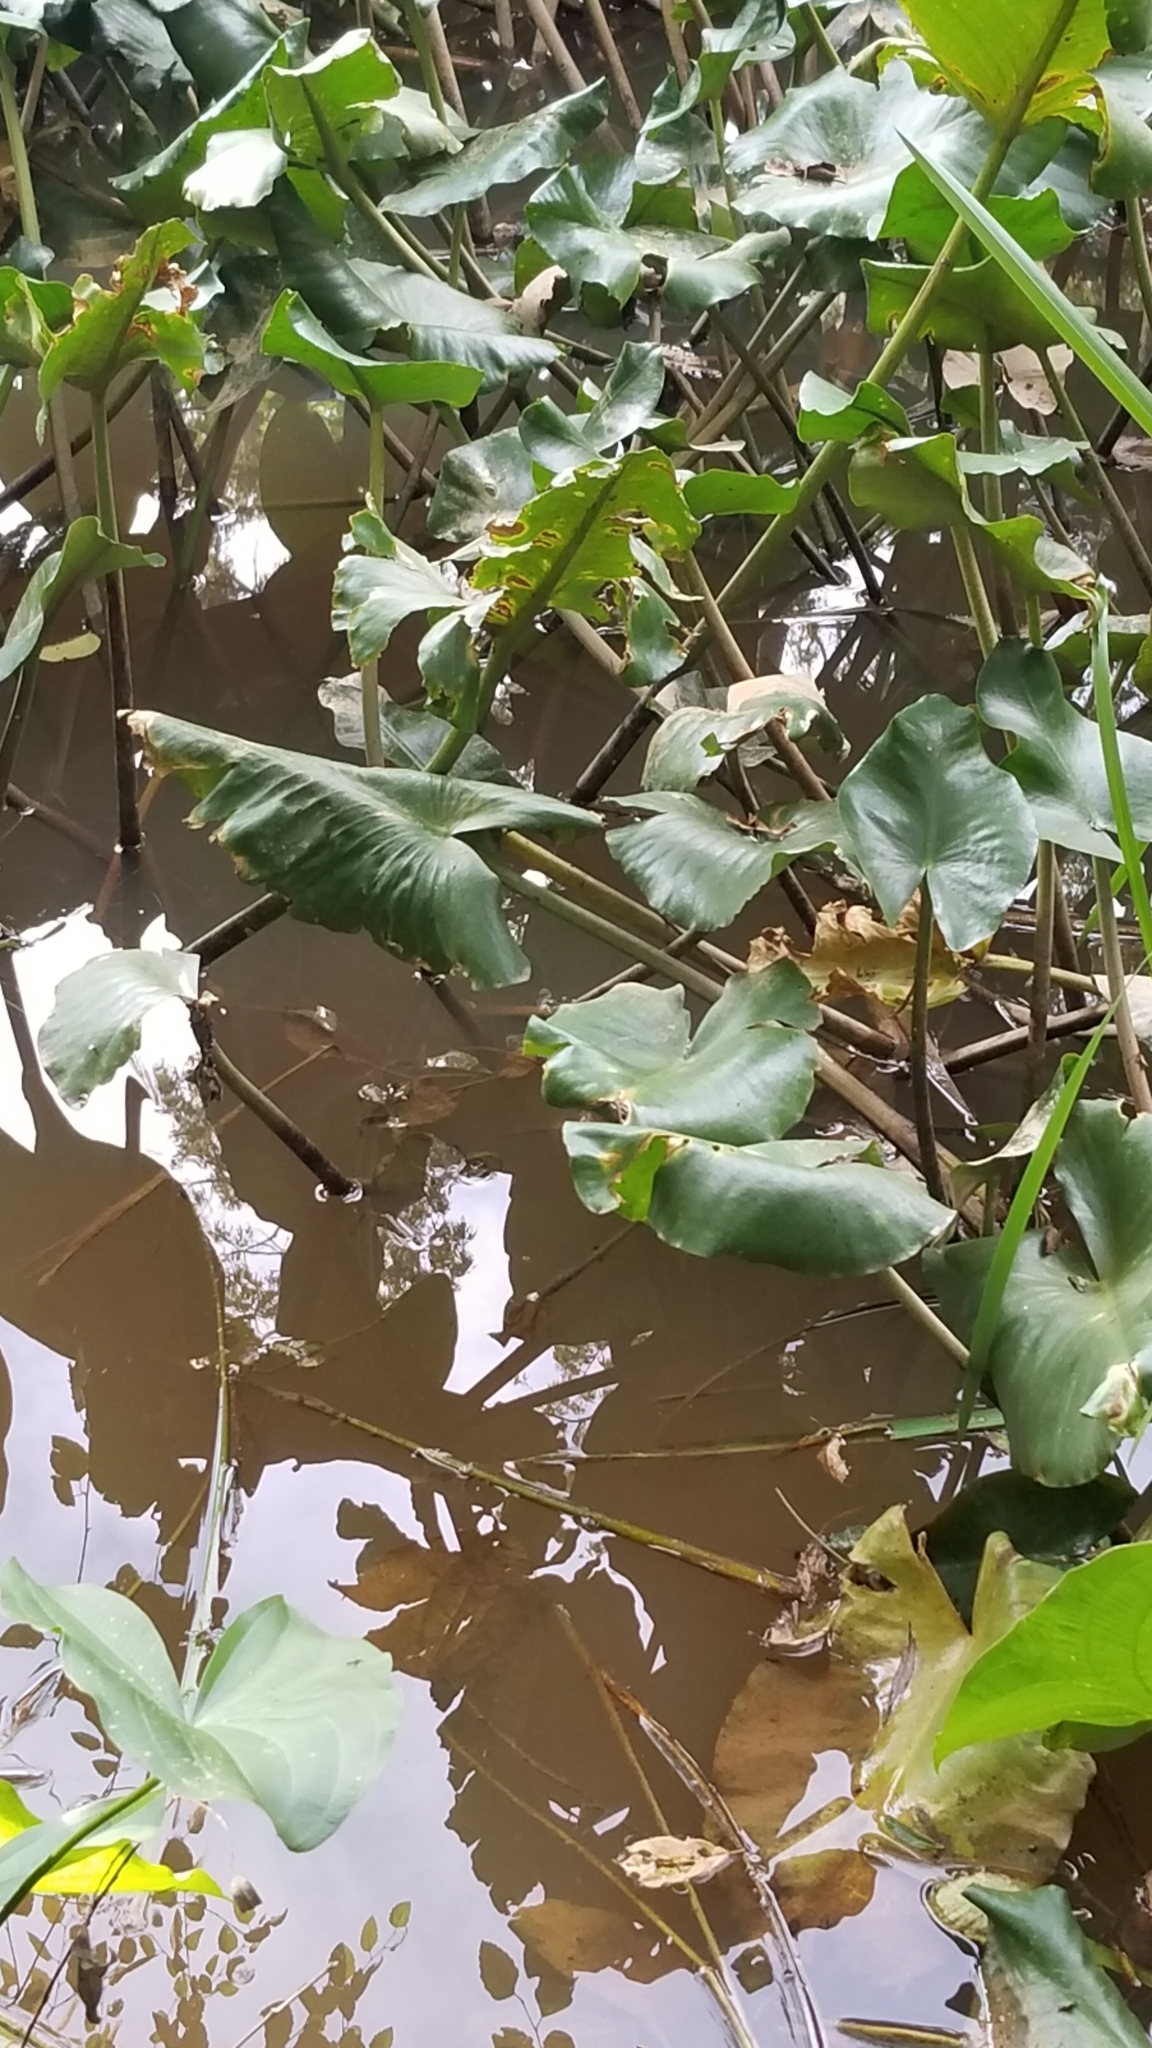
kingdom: Plantae
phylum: Tracheophyta
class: Liliopsida
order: Alismatales
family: Alismataceae
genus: Sagittaria
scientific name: Sagittaria
